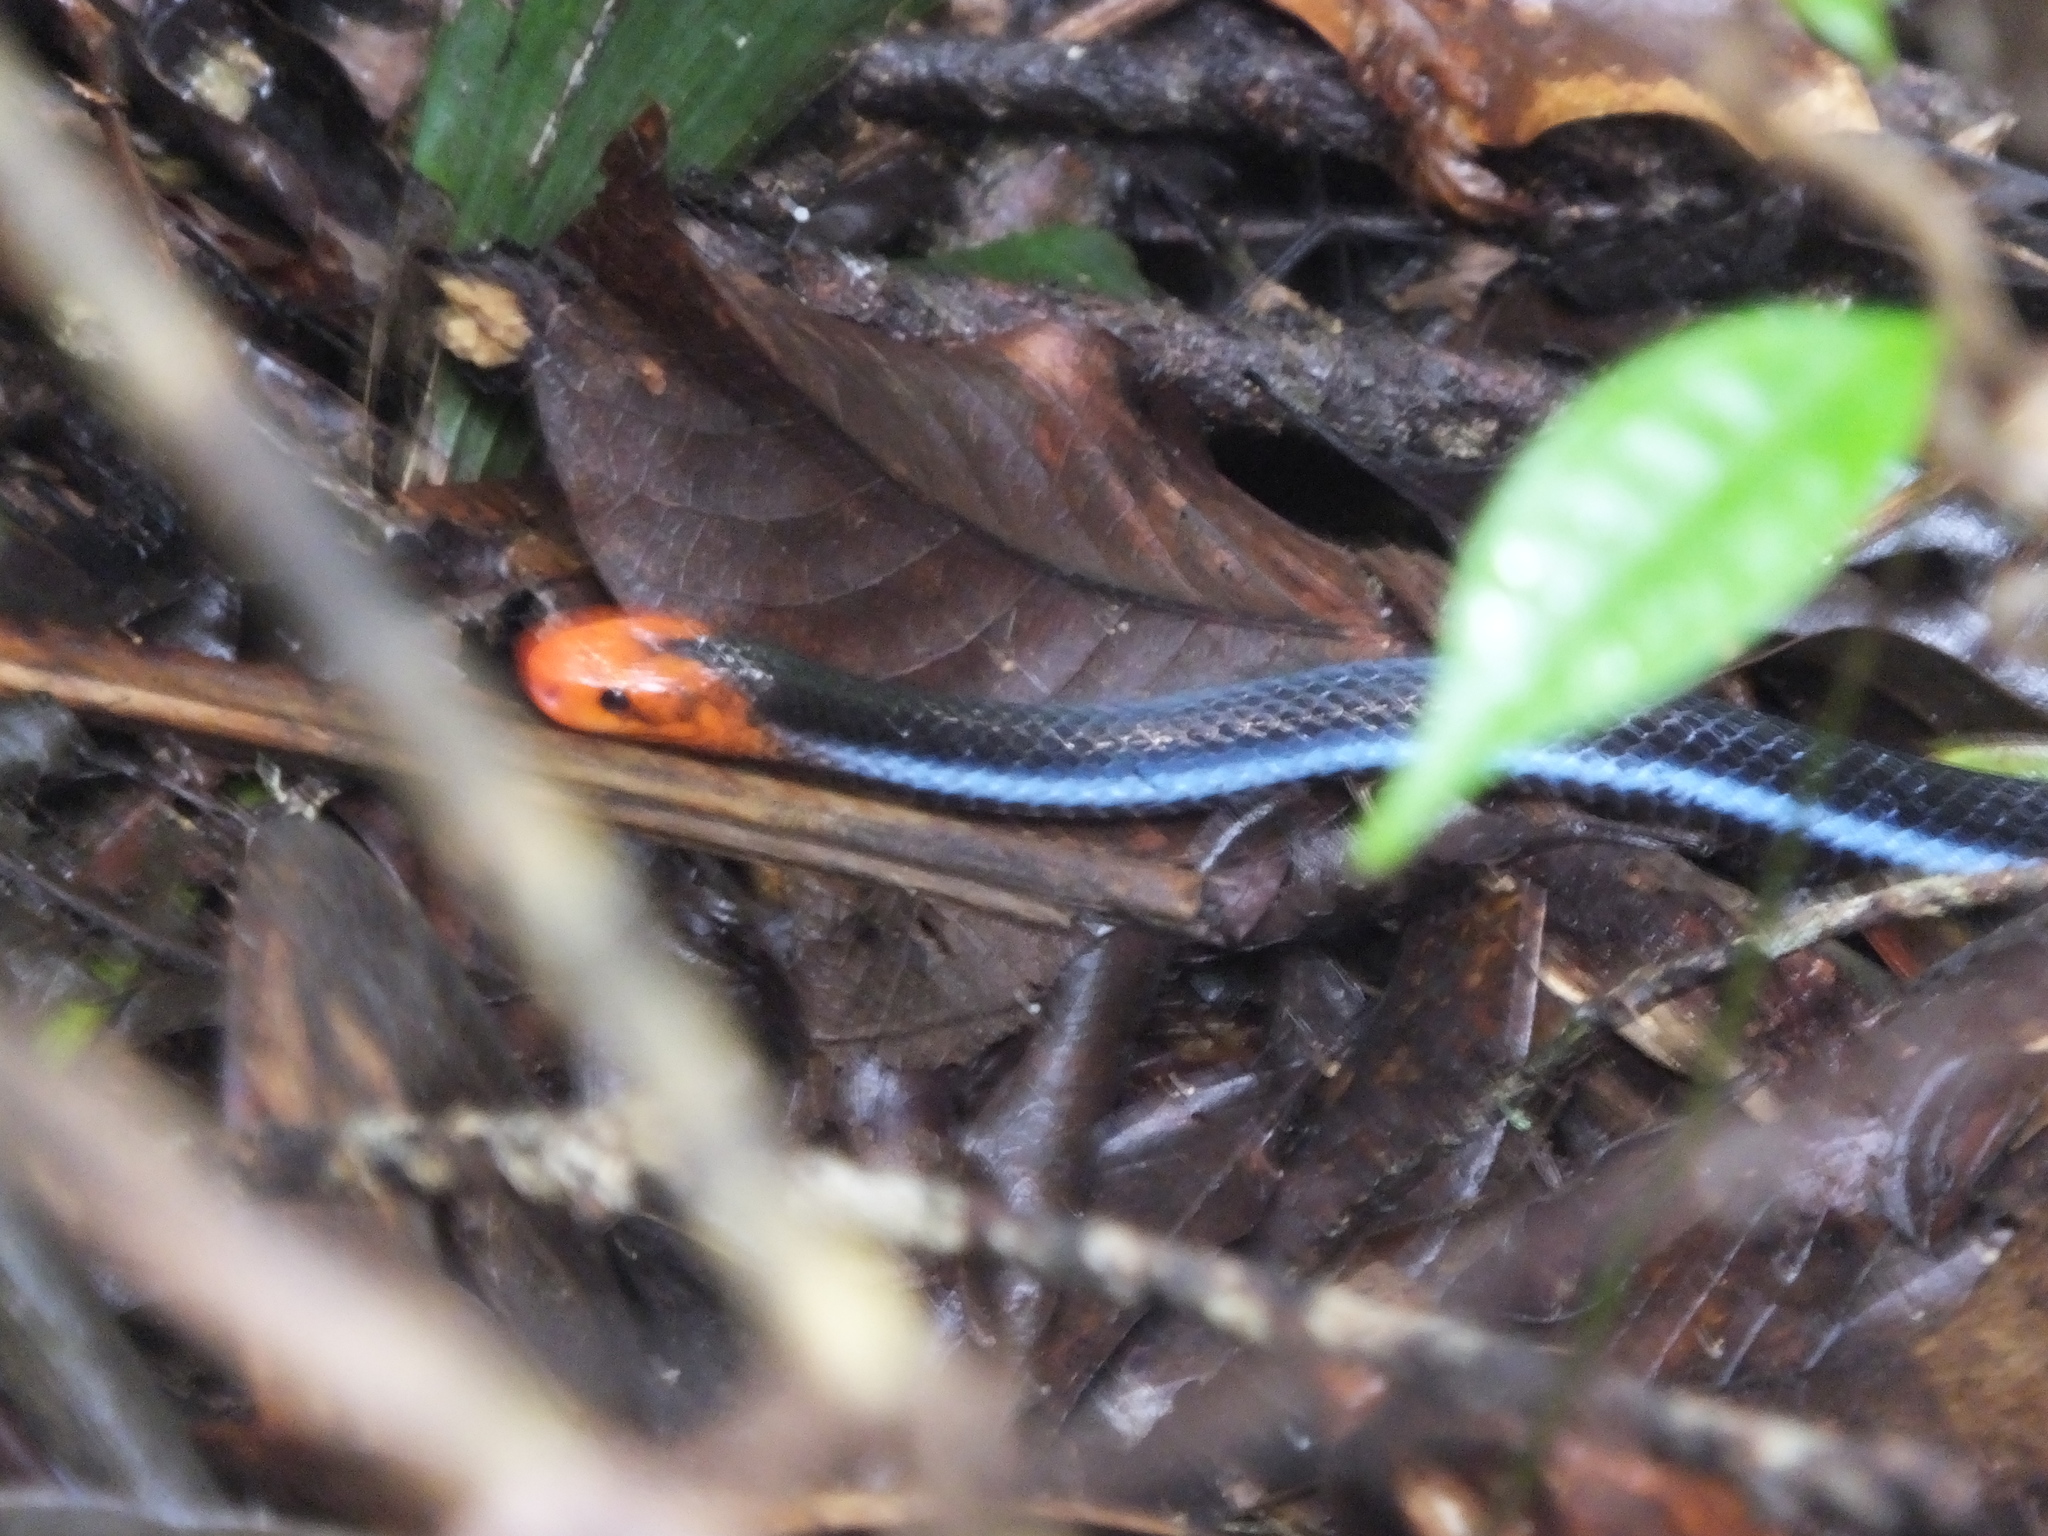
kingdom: Animalia
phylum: Chordata
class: Squamata
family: Elapidae
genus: Calliophis
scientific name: Calliophis bivirgatus
